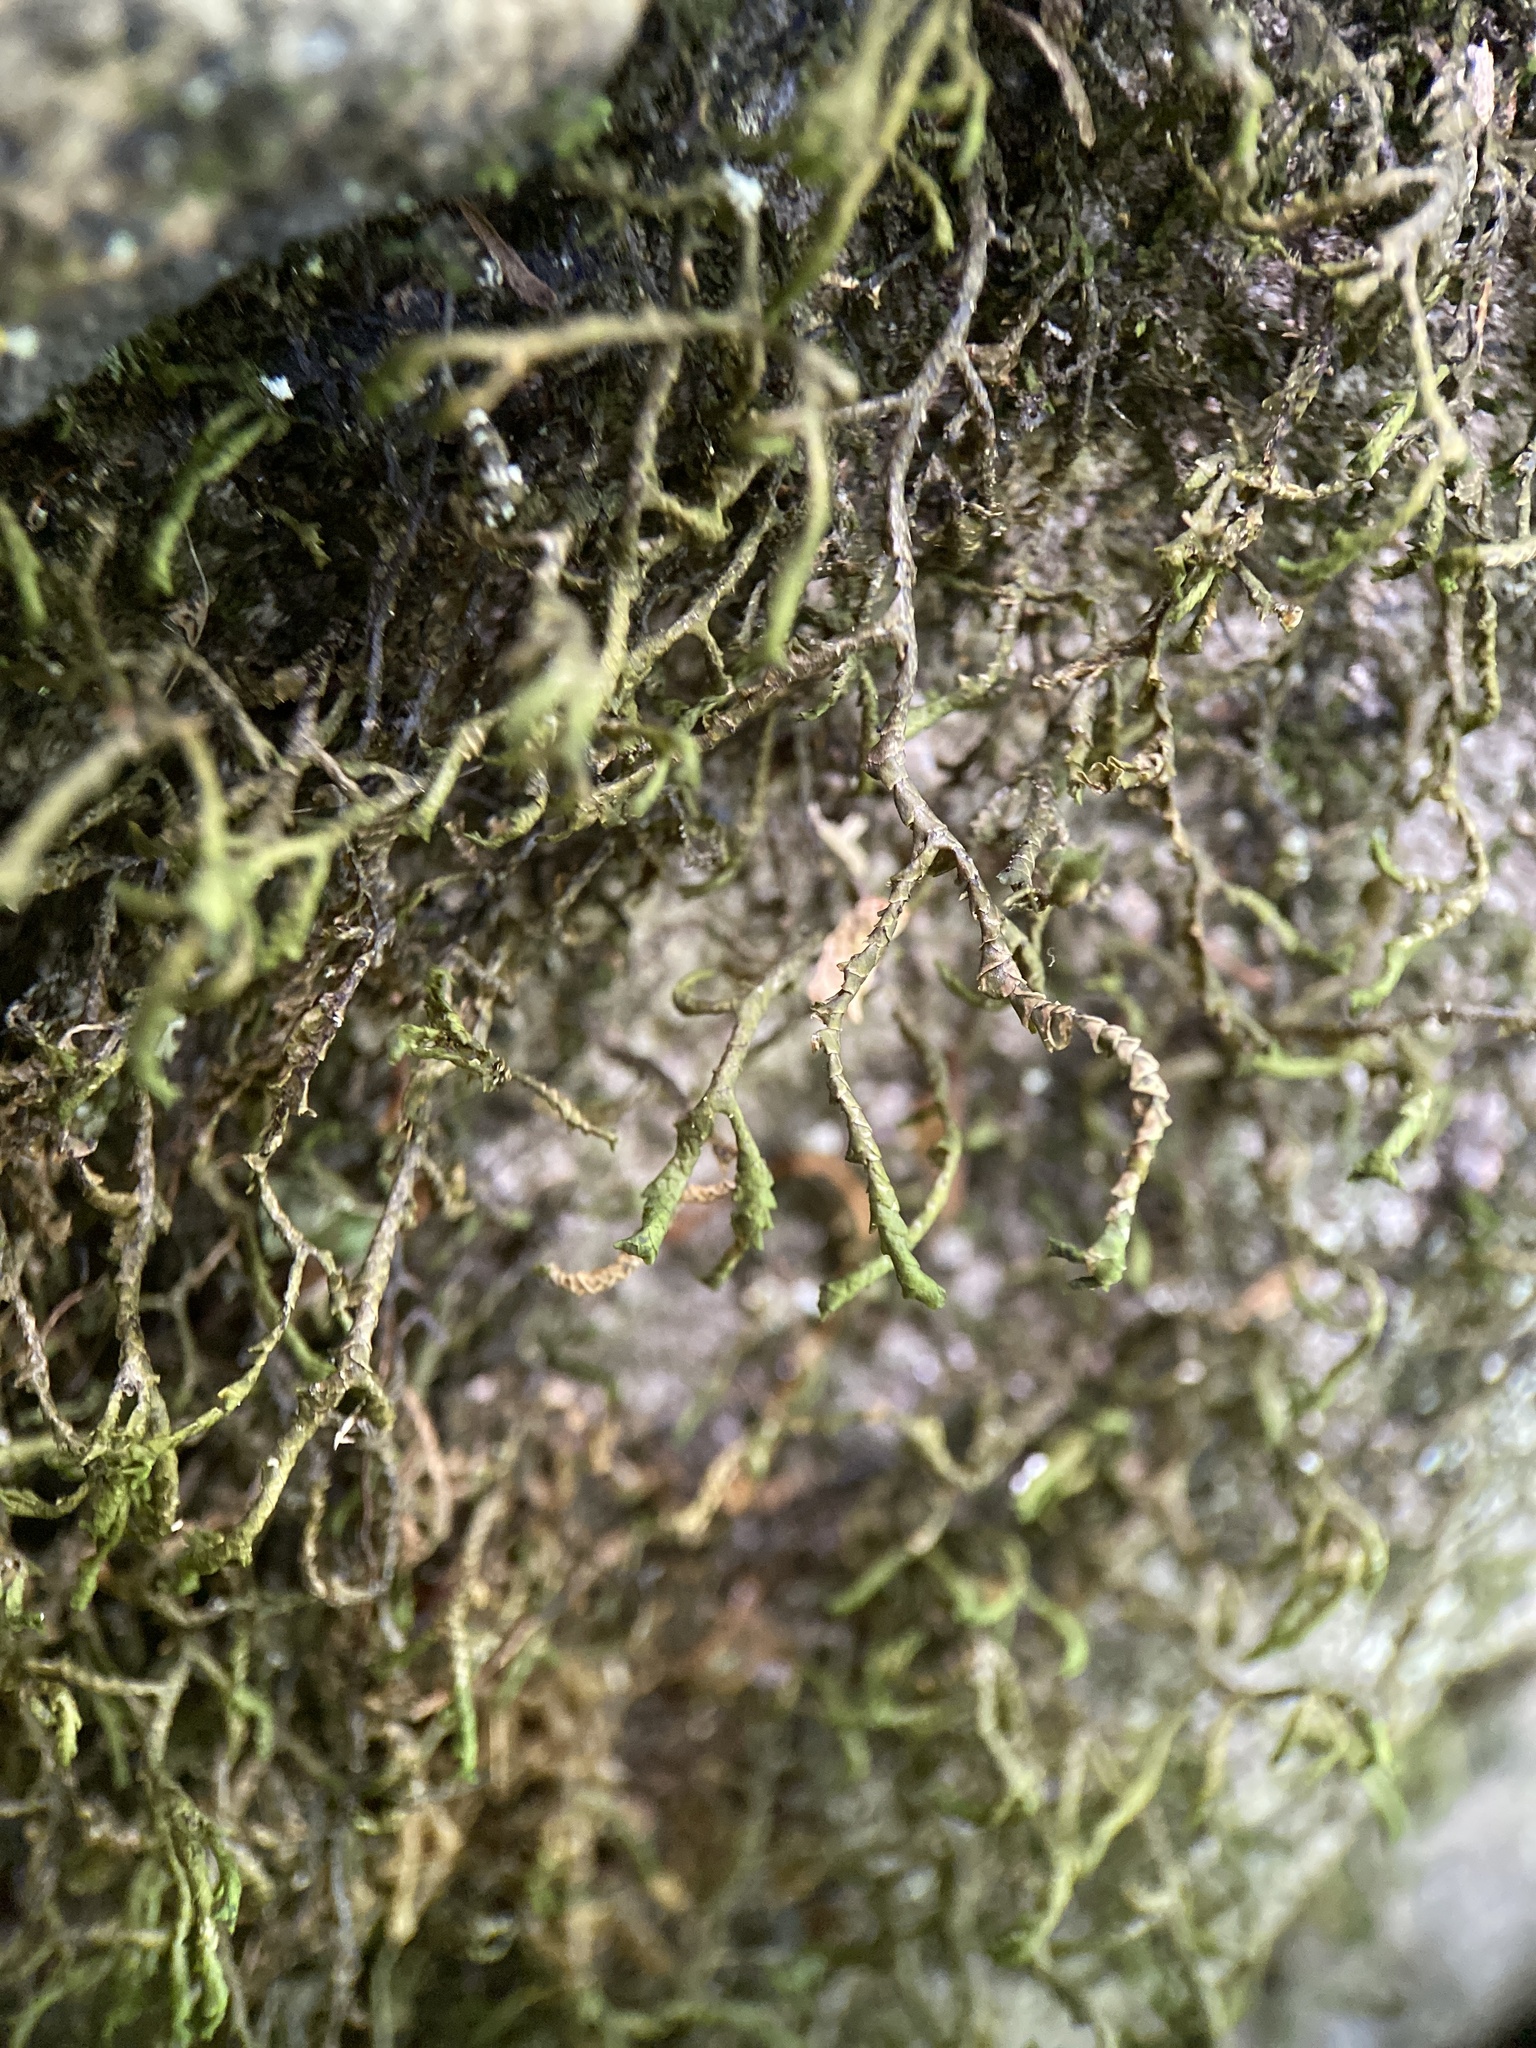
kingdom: Plantae
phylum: Marchantiophyta
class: Jungermanniopsida
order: Porellales
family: Porellaceae
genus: Porella
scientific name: Porella pinnata
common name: Pinnate scalewort
